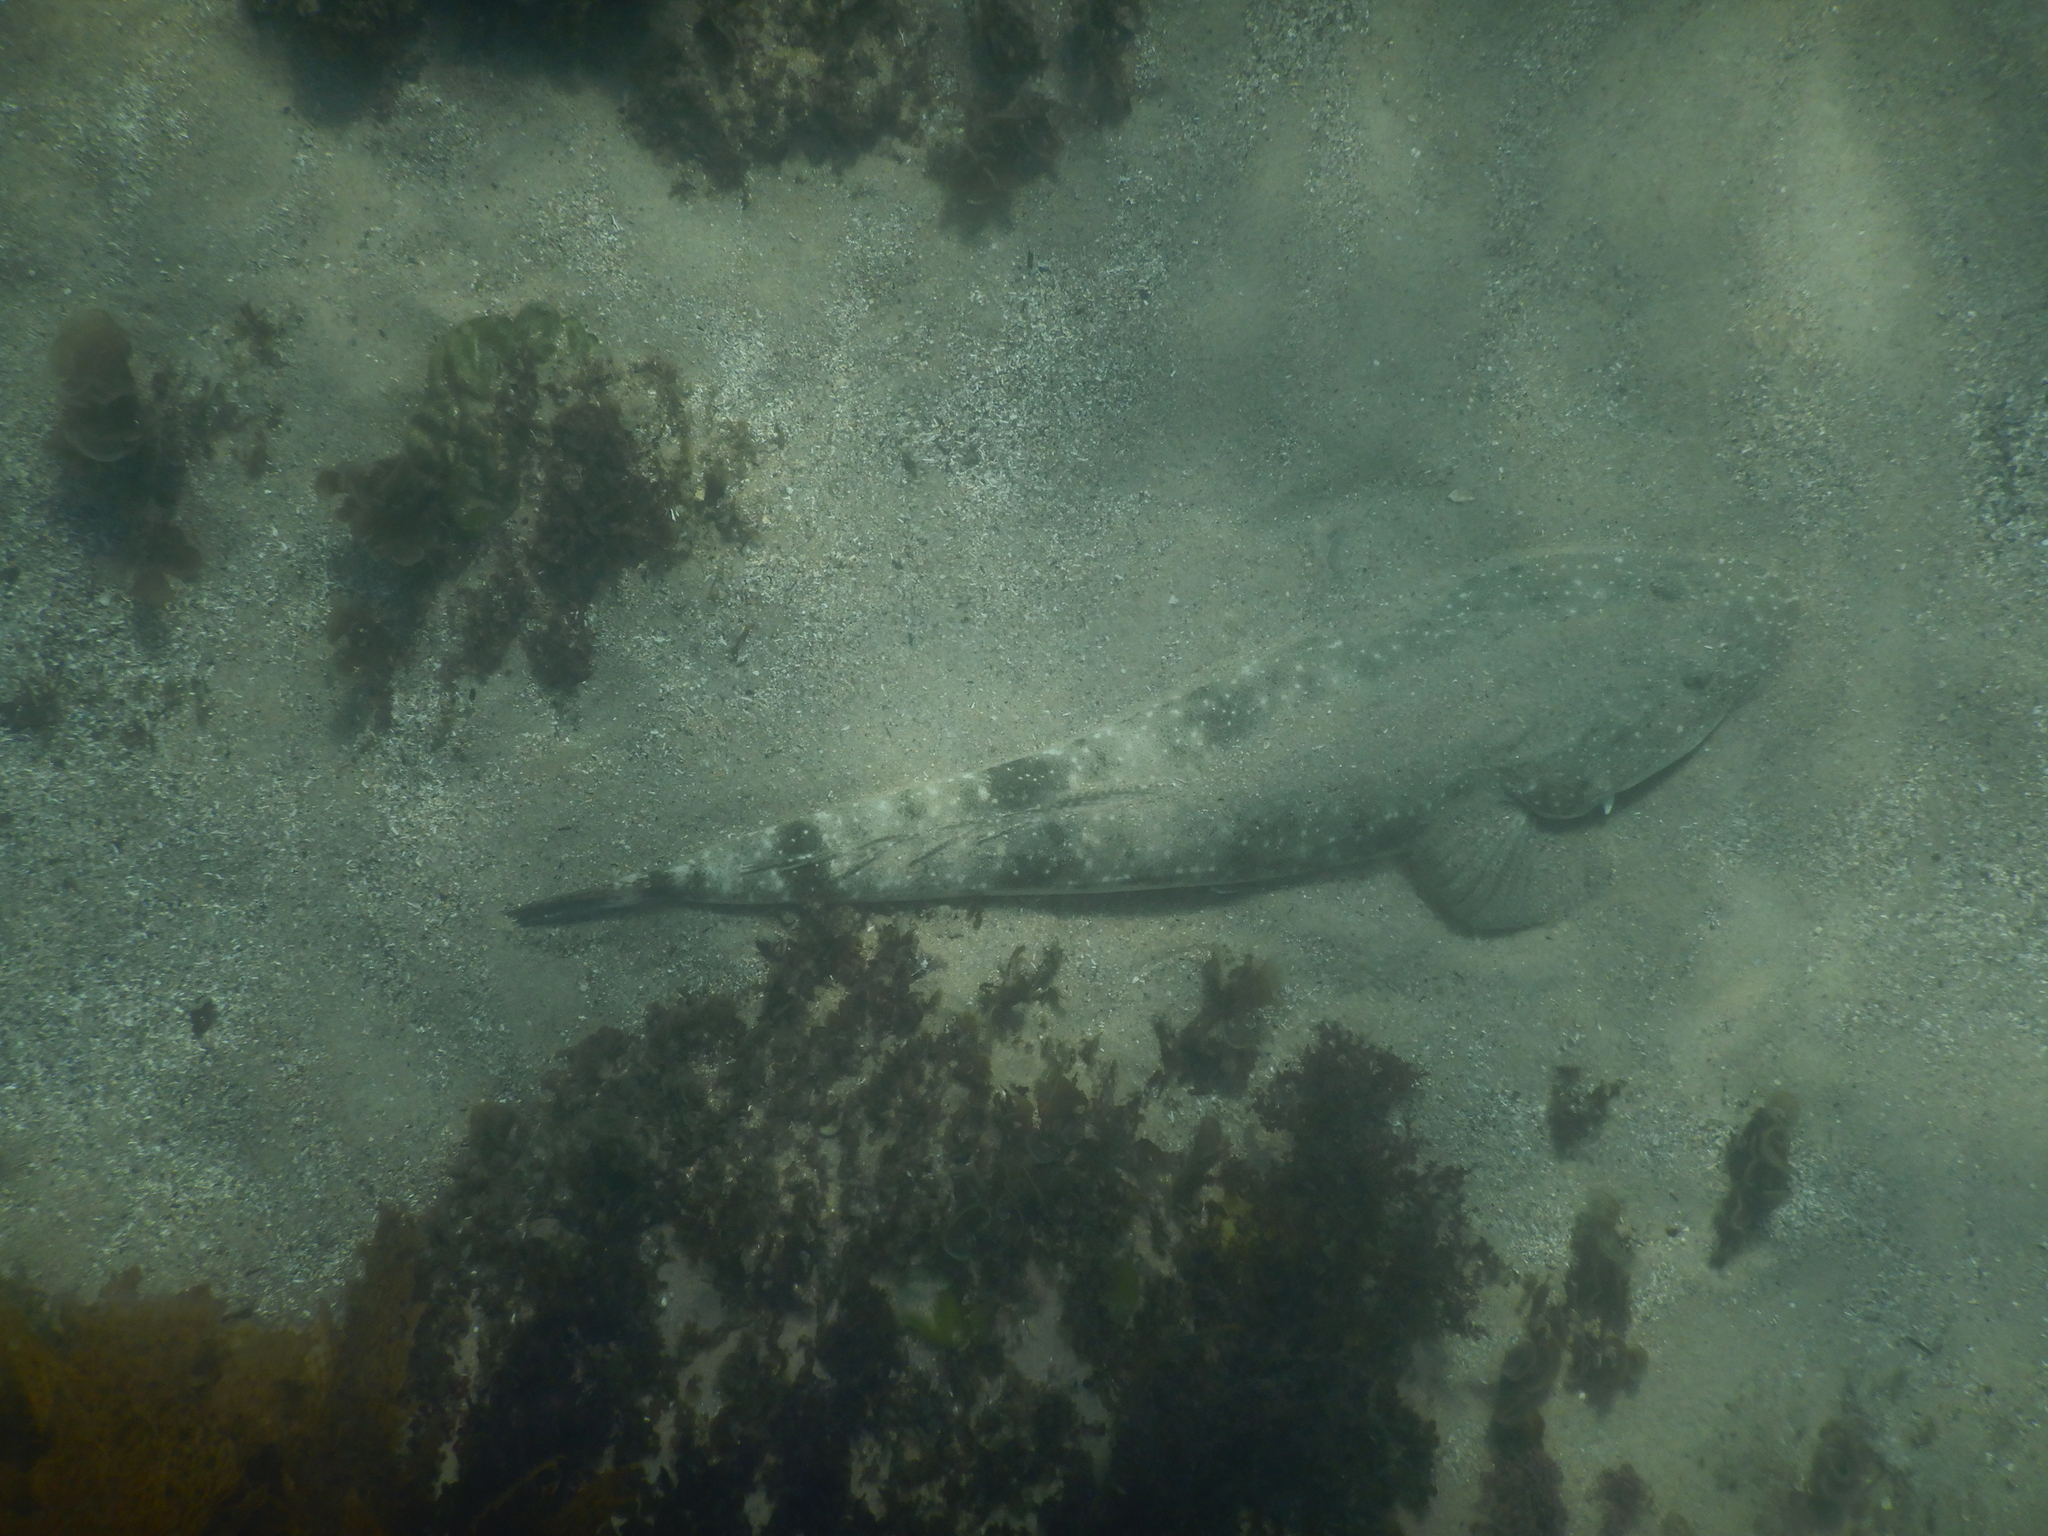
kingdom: Animalia
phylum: Chordata
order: Scorpaeniformes
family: Platycephalidae
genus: Platycephalus
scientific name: Platycephalus fuscus
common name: Dusky flathead
